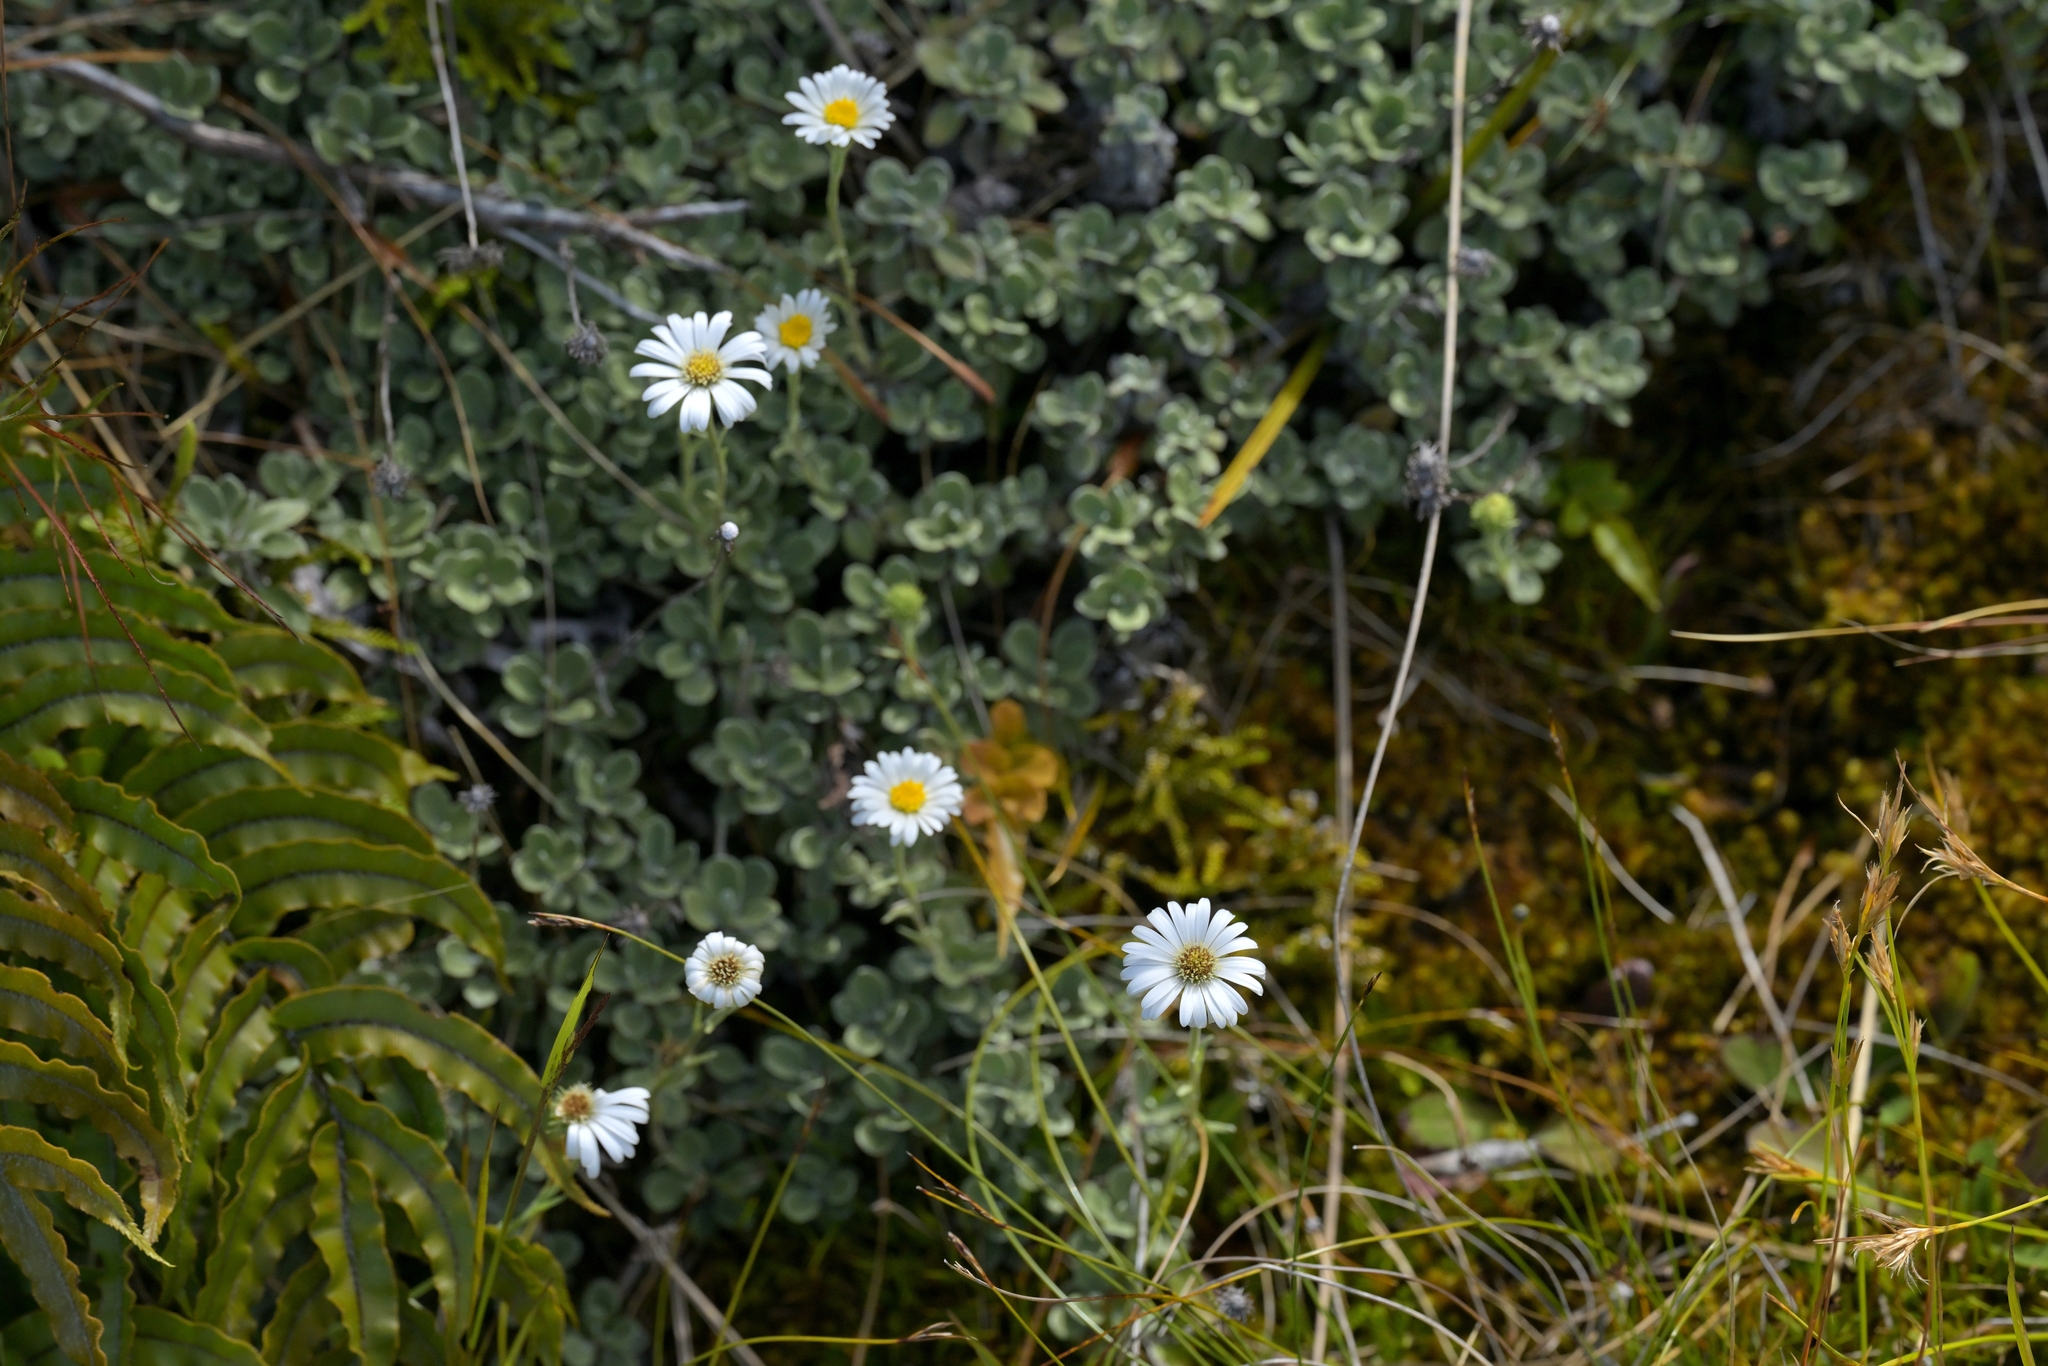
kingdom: Plantae
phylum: Tracheophyta
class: Magnoliopsida
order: Asterales
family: Asteraceae
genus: Celmisia
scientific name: Celmisia discolor
